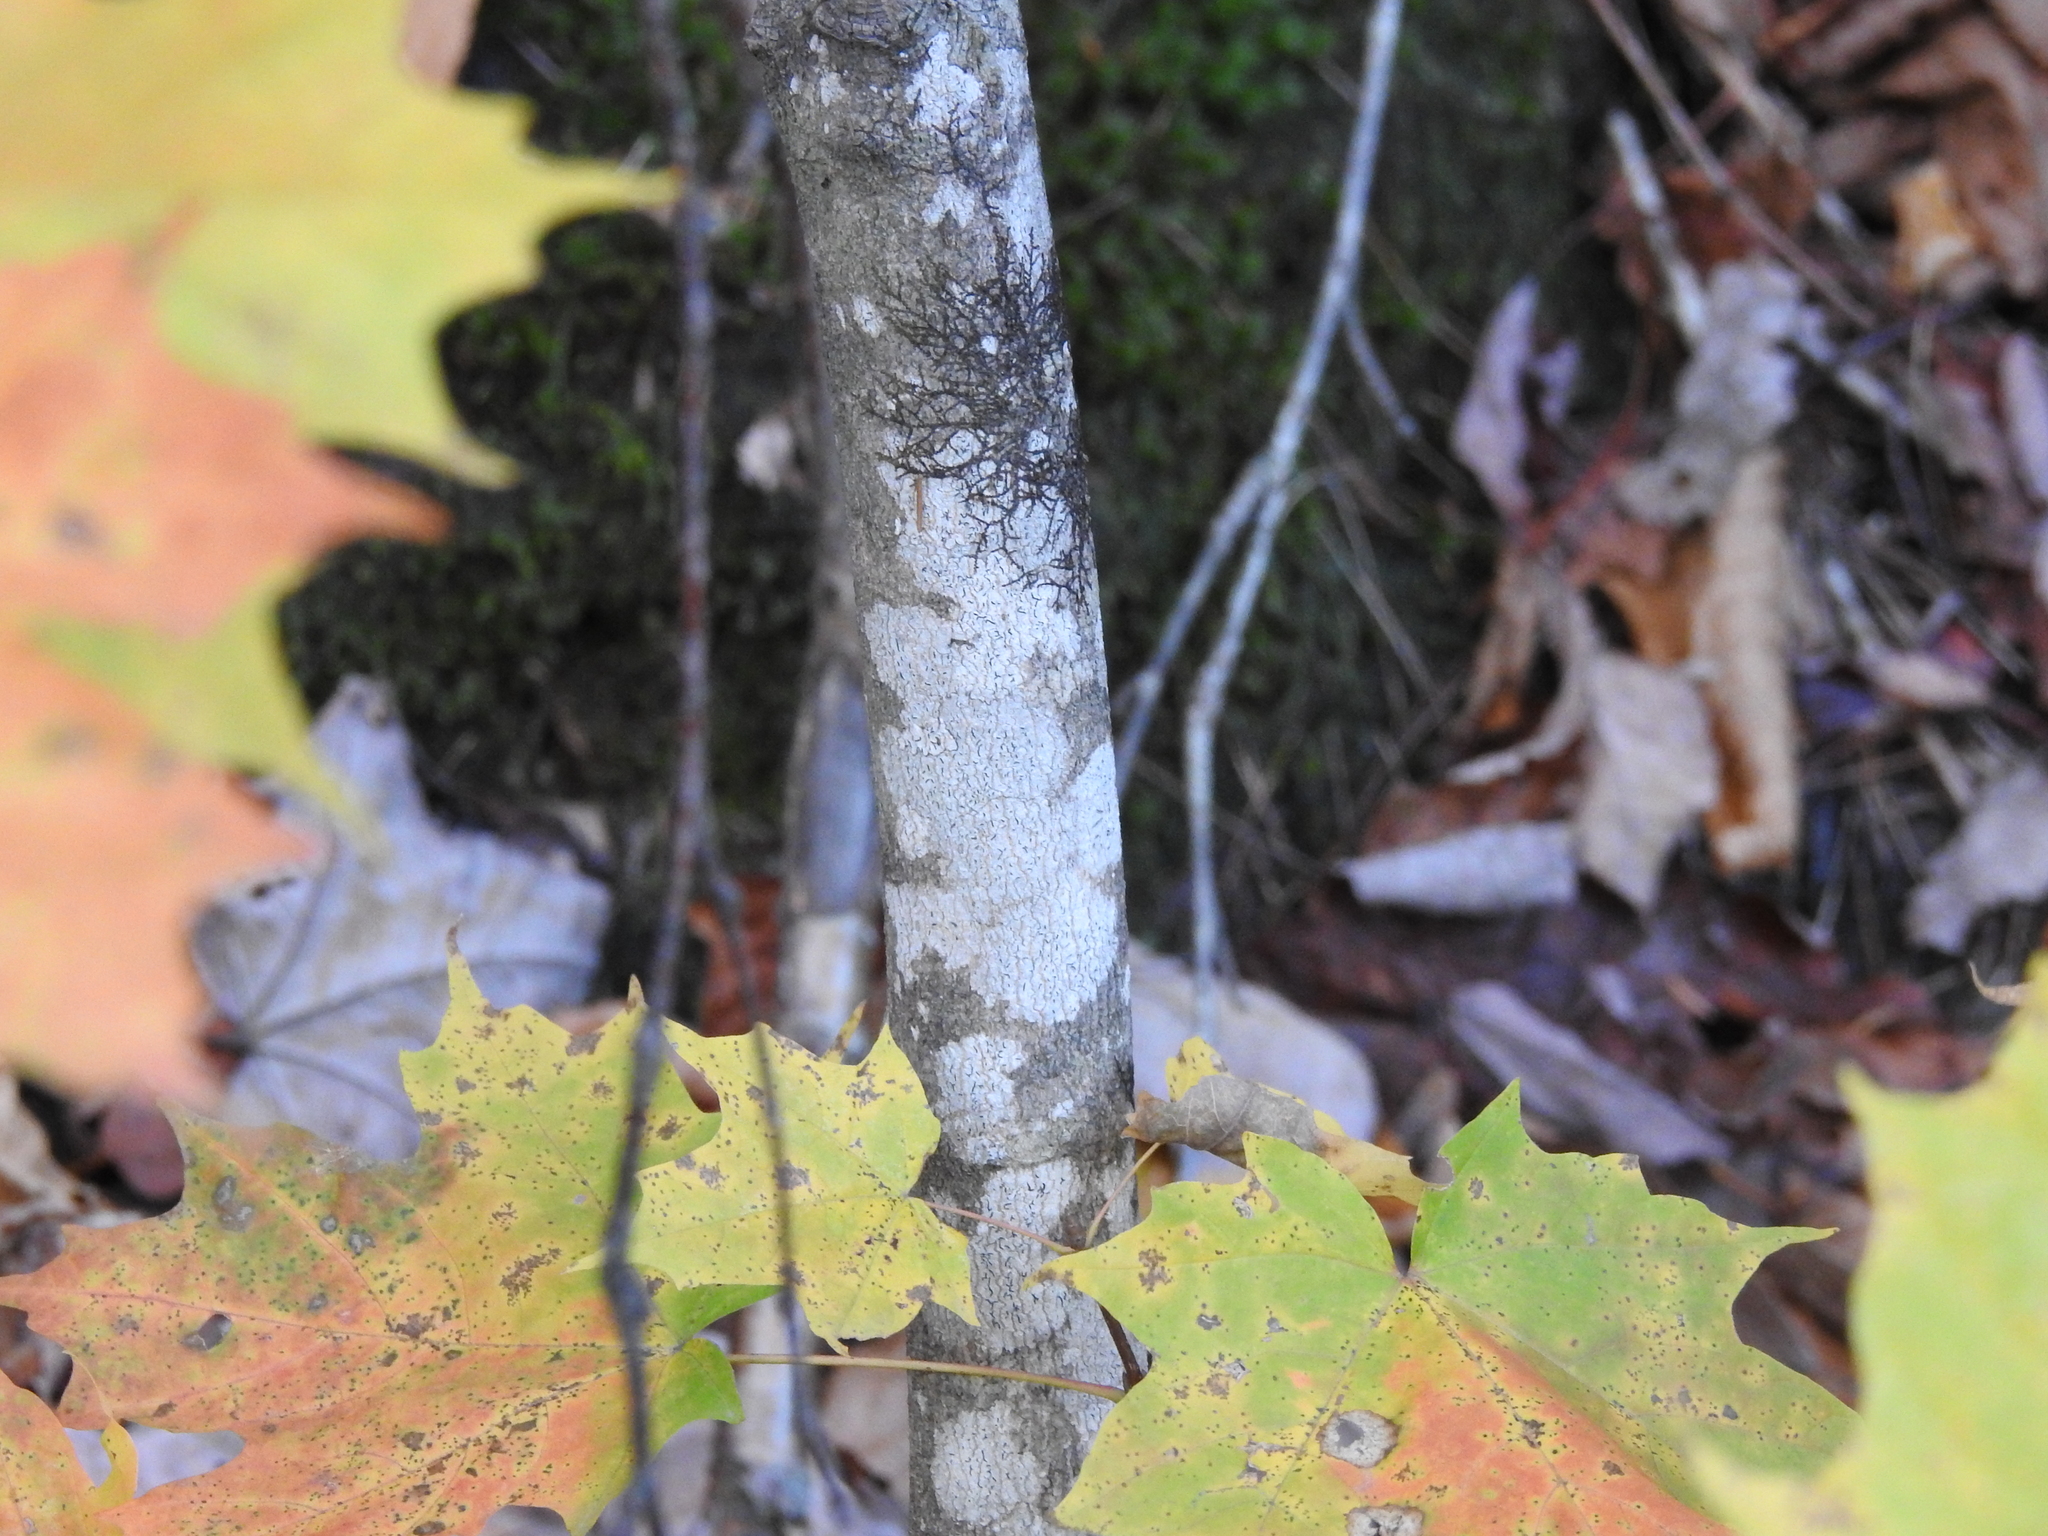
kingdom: Plantae
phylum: Tracheophyta
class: Magnoliopsida
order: Sapindales
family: Sapindaceae
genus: Acer
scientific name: Acer saccharum
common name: Sugar maple
